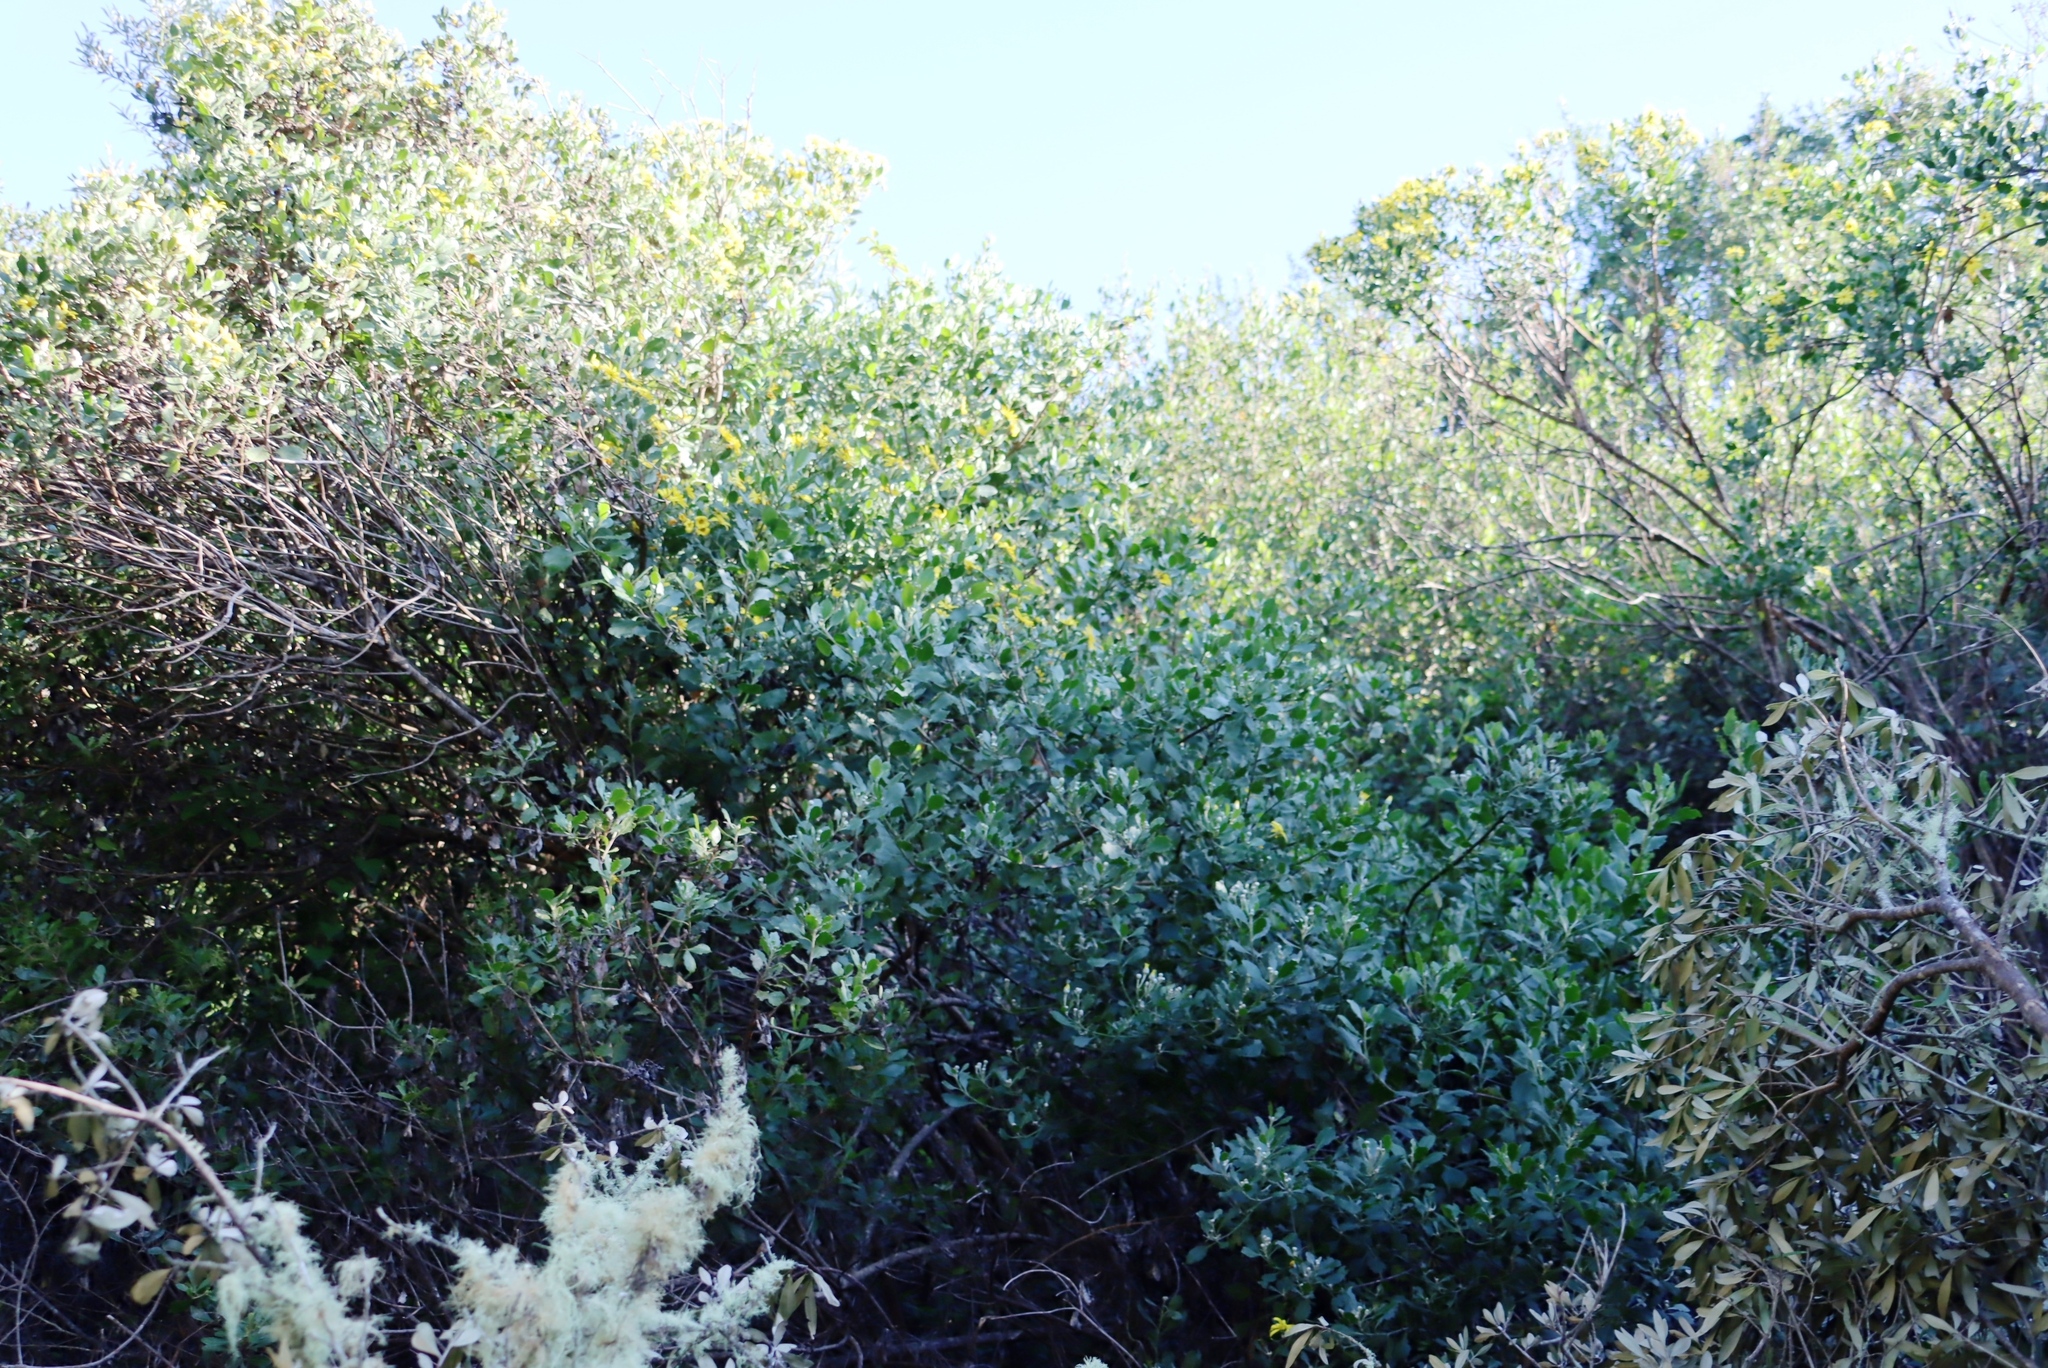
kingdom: Plantae
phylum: Tracheophyta
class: Magnoliopsida
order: Asterales
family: Asteraceae
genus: Osteospermum
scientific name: Osteospermum moniliferum
